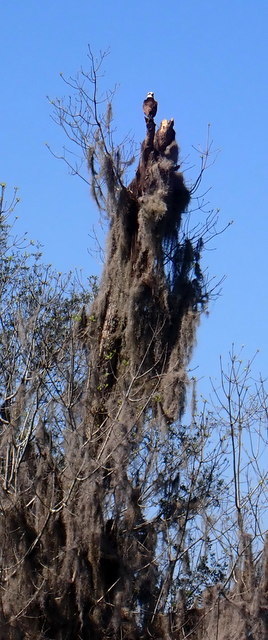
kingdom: Animalia
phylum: Chordata
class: Aves
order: Accipitriformes
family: Pandionidae
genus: Pandion
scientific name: Pandion haliaetus
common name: Osprey
